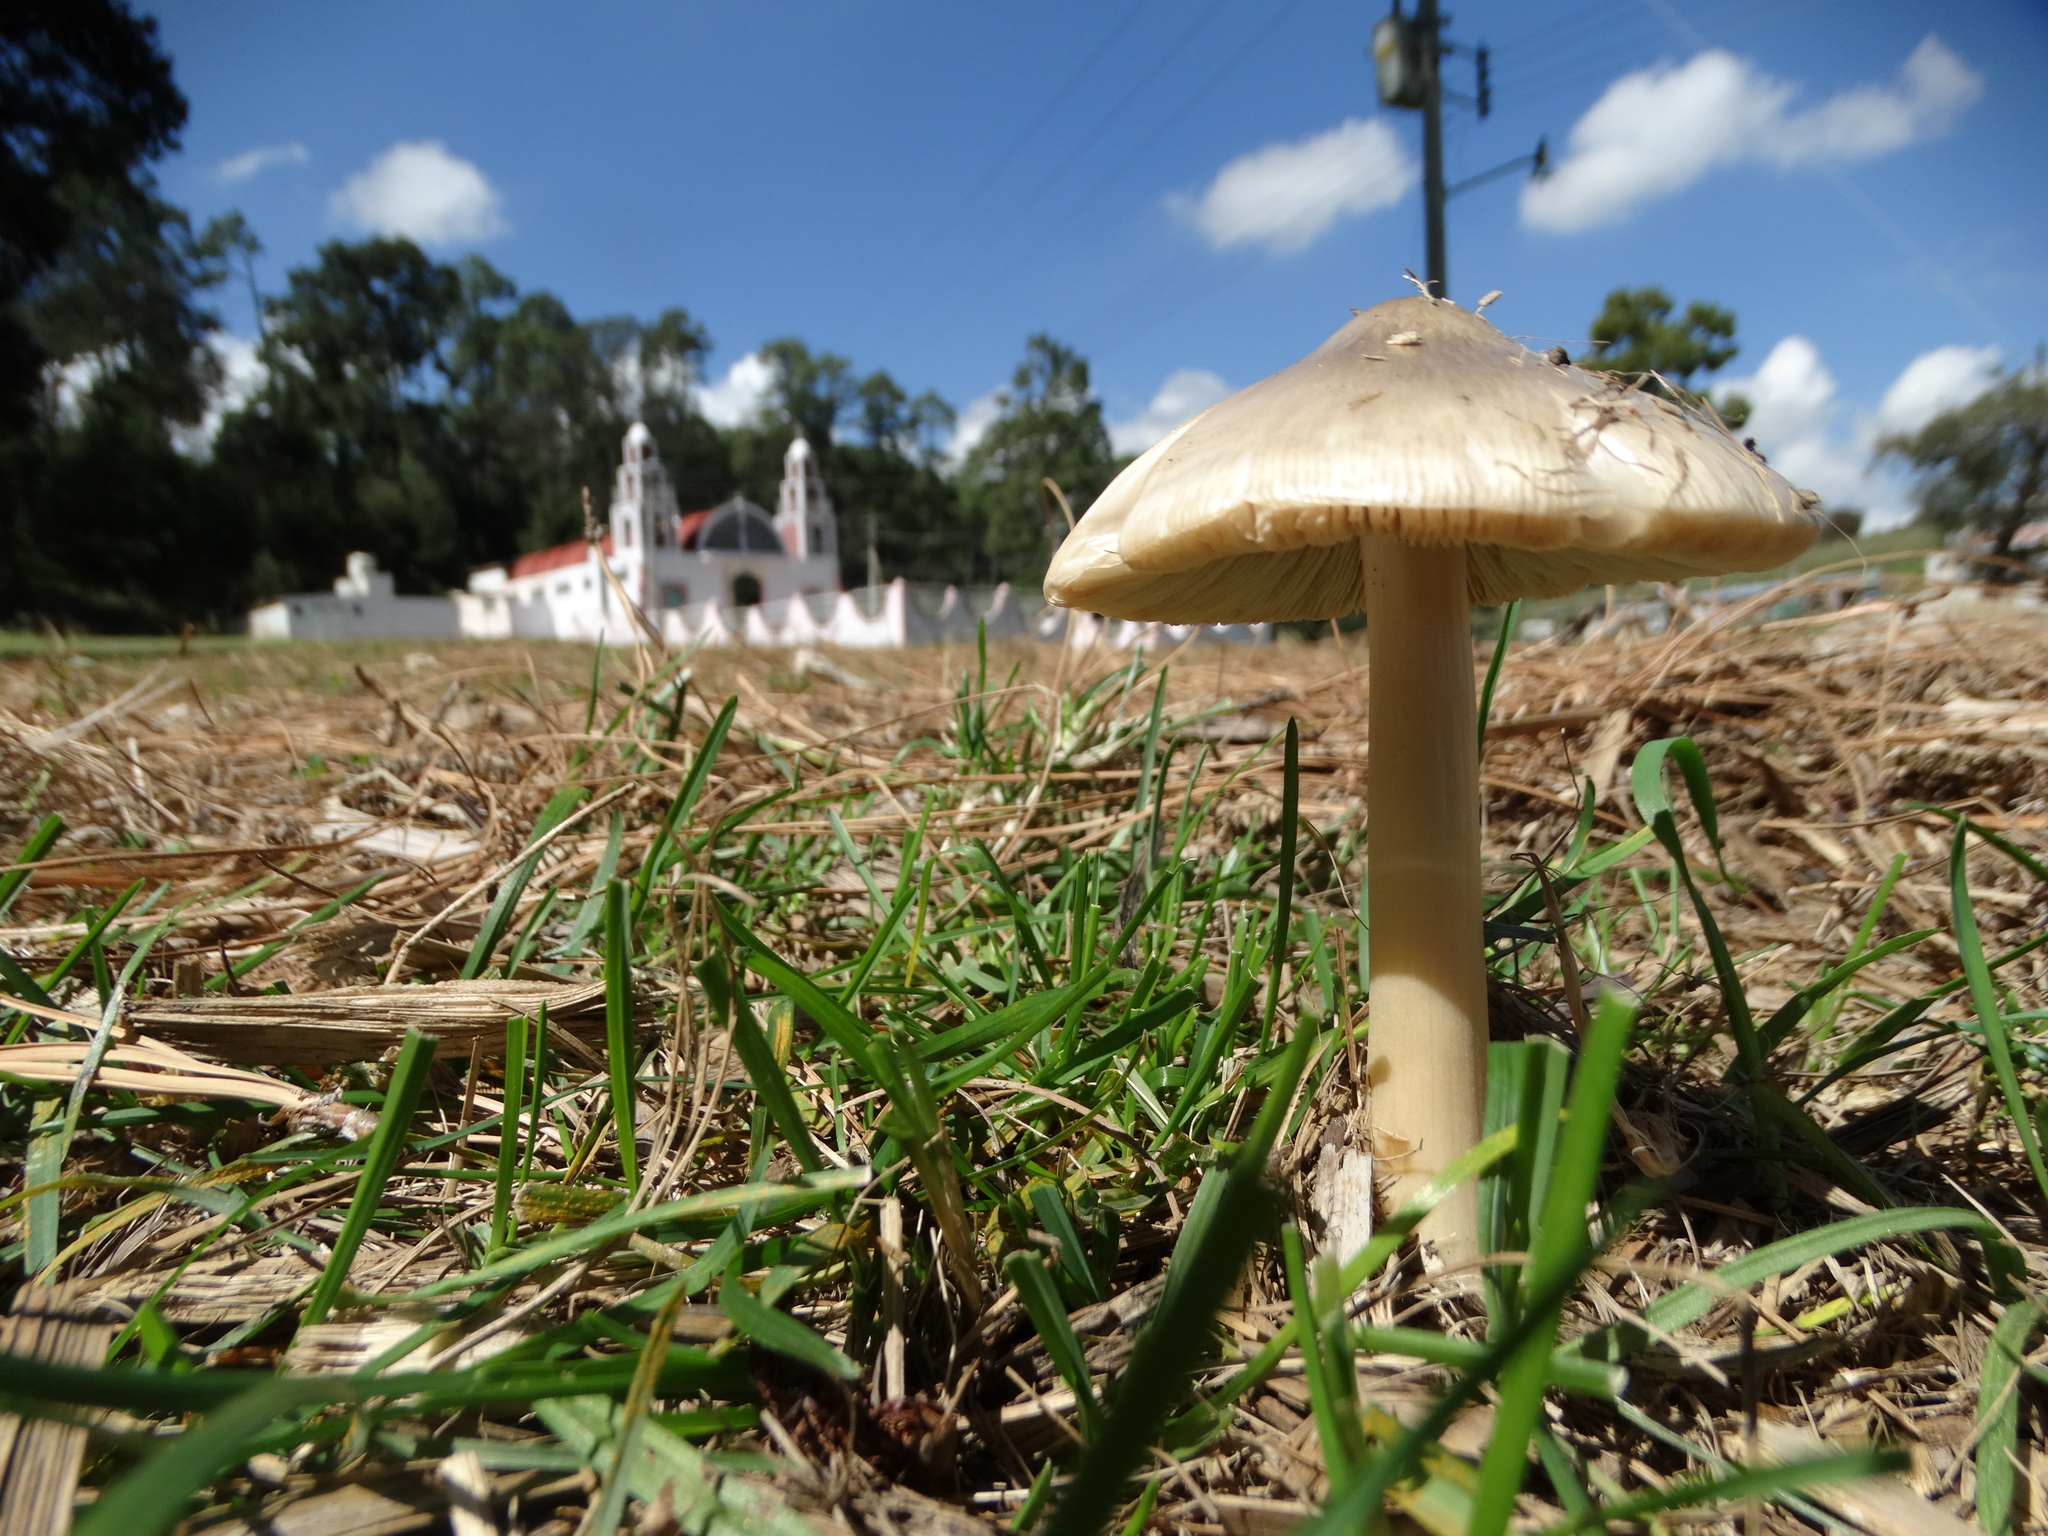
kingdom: Fungi
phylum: Basidiomycota
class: Agaricomycetes
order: Agaricales
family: Pluteaceae
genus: Volvopluteus
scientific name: Volvopluteus gloiocephalus
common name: Stubble rosegill
